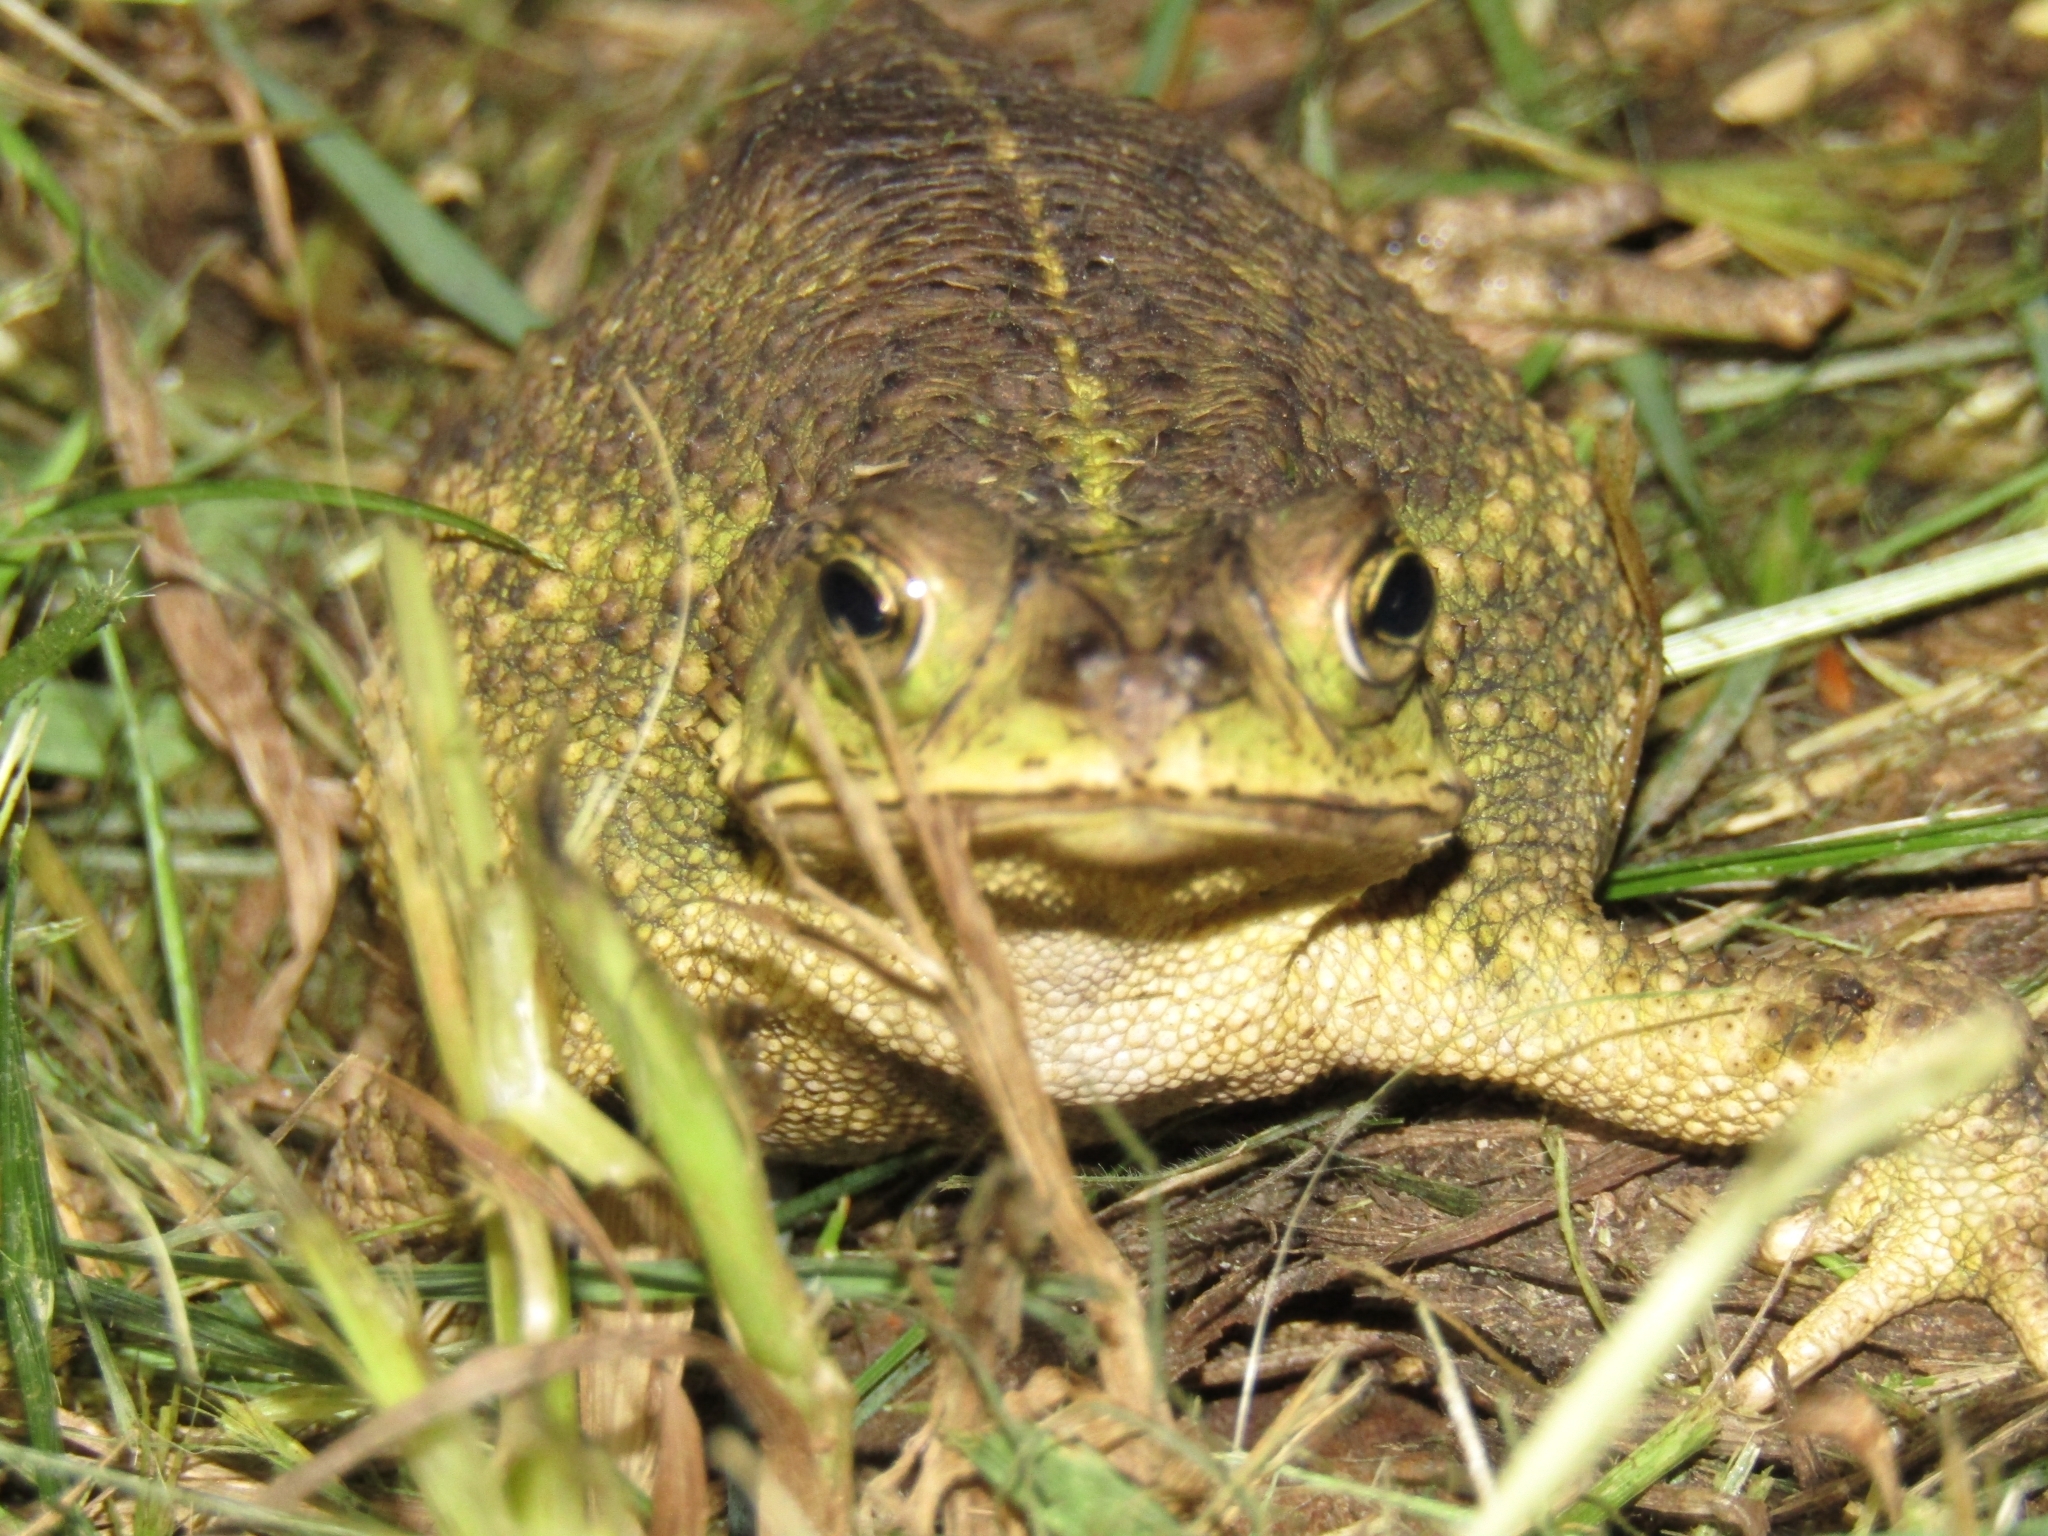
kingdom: Animalia
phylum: Chordata
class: Amphibia
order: Anura
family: Bufonidae
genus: Rhinella
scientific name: Rhinella dorbignyi
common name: D´orbigny’s toad
